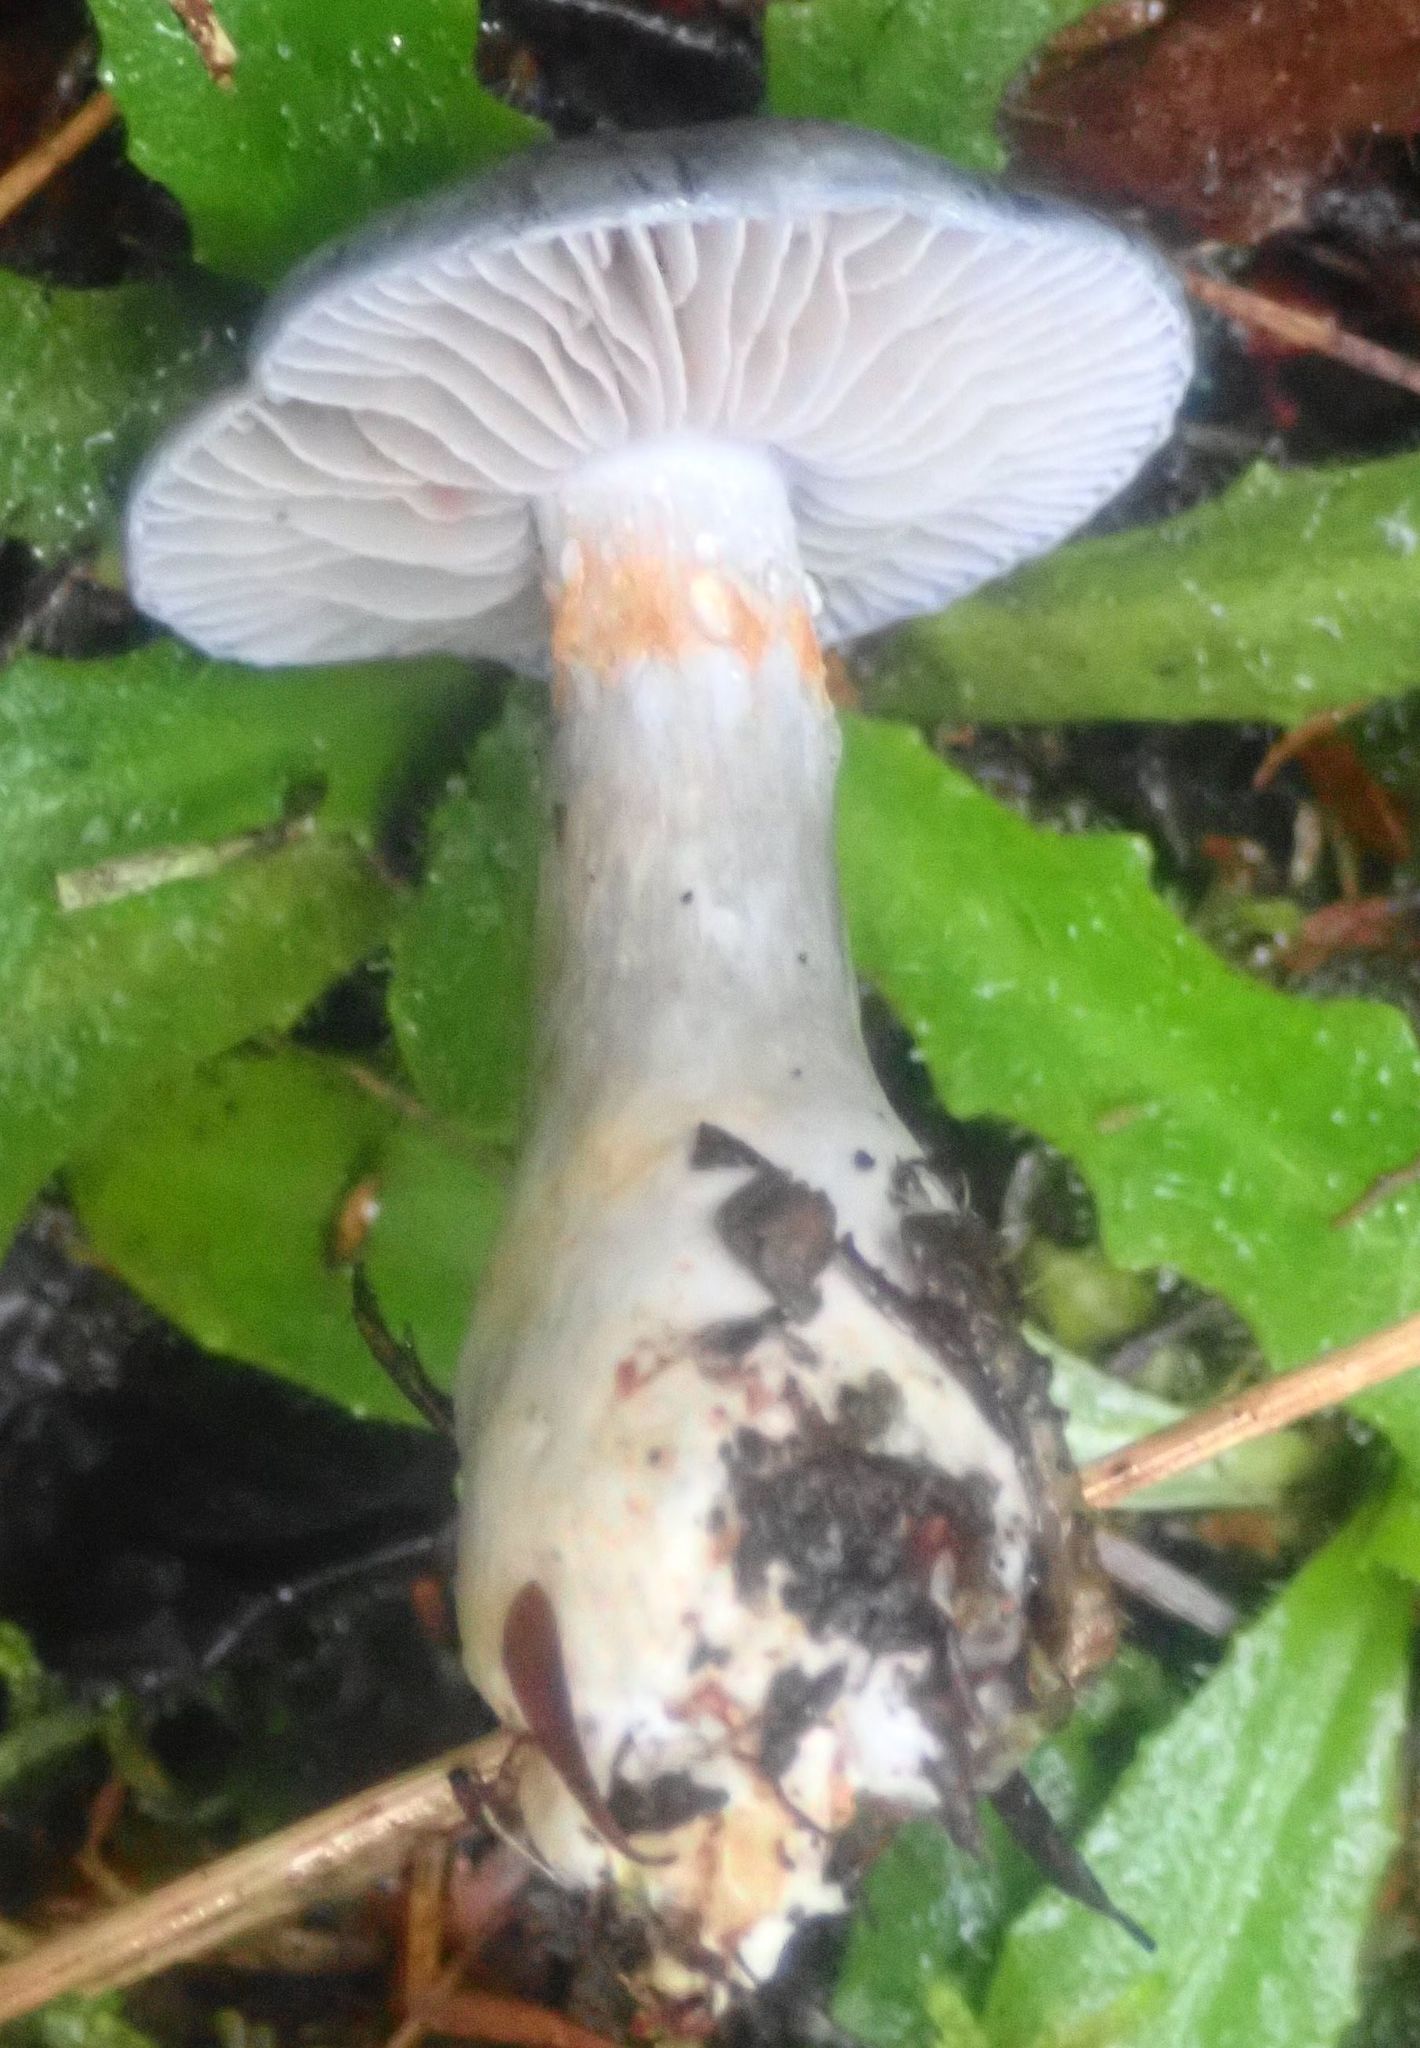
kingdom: Fungi
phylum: Basidiomycota
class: Agaricomycetes
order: Agaricales
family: Cortinariaceae
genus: Cortinarius
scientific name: Cortinarius rotundisporus
